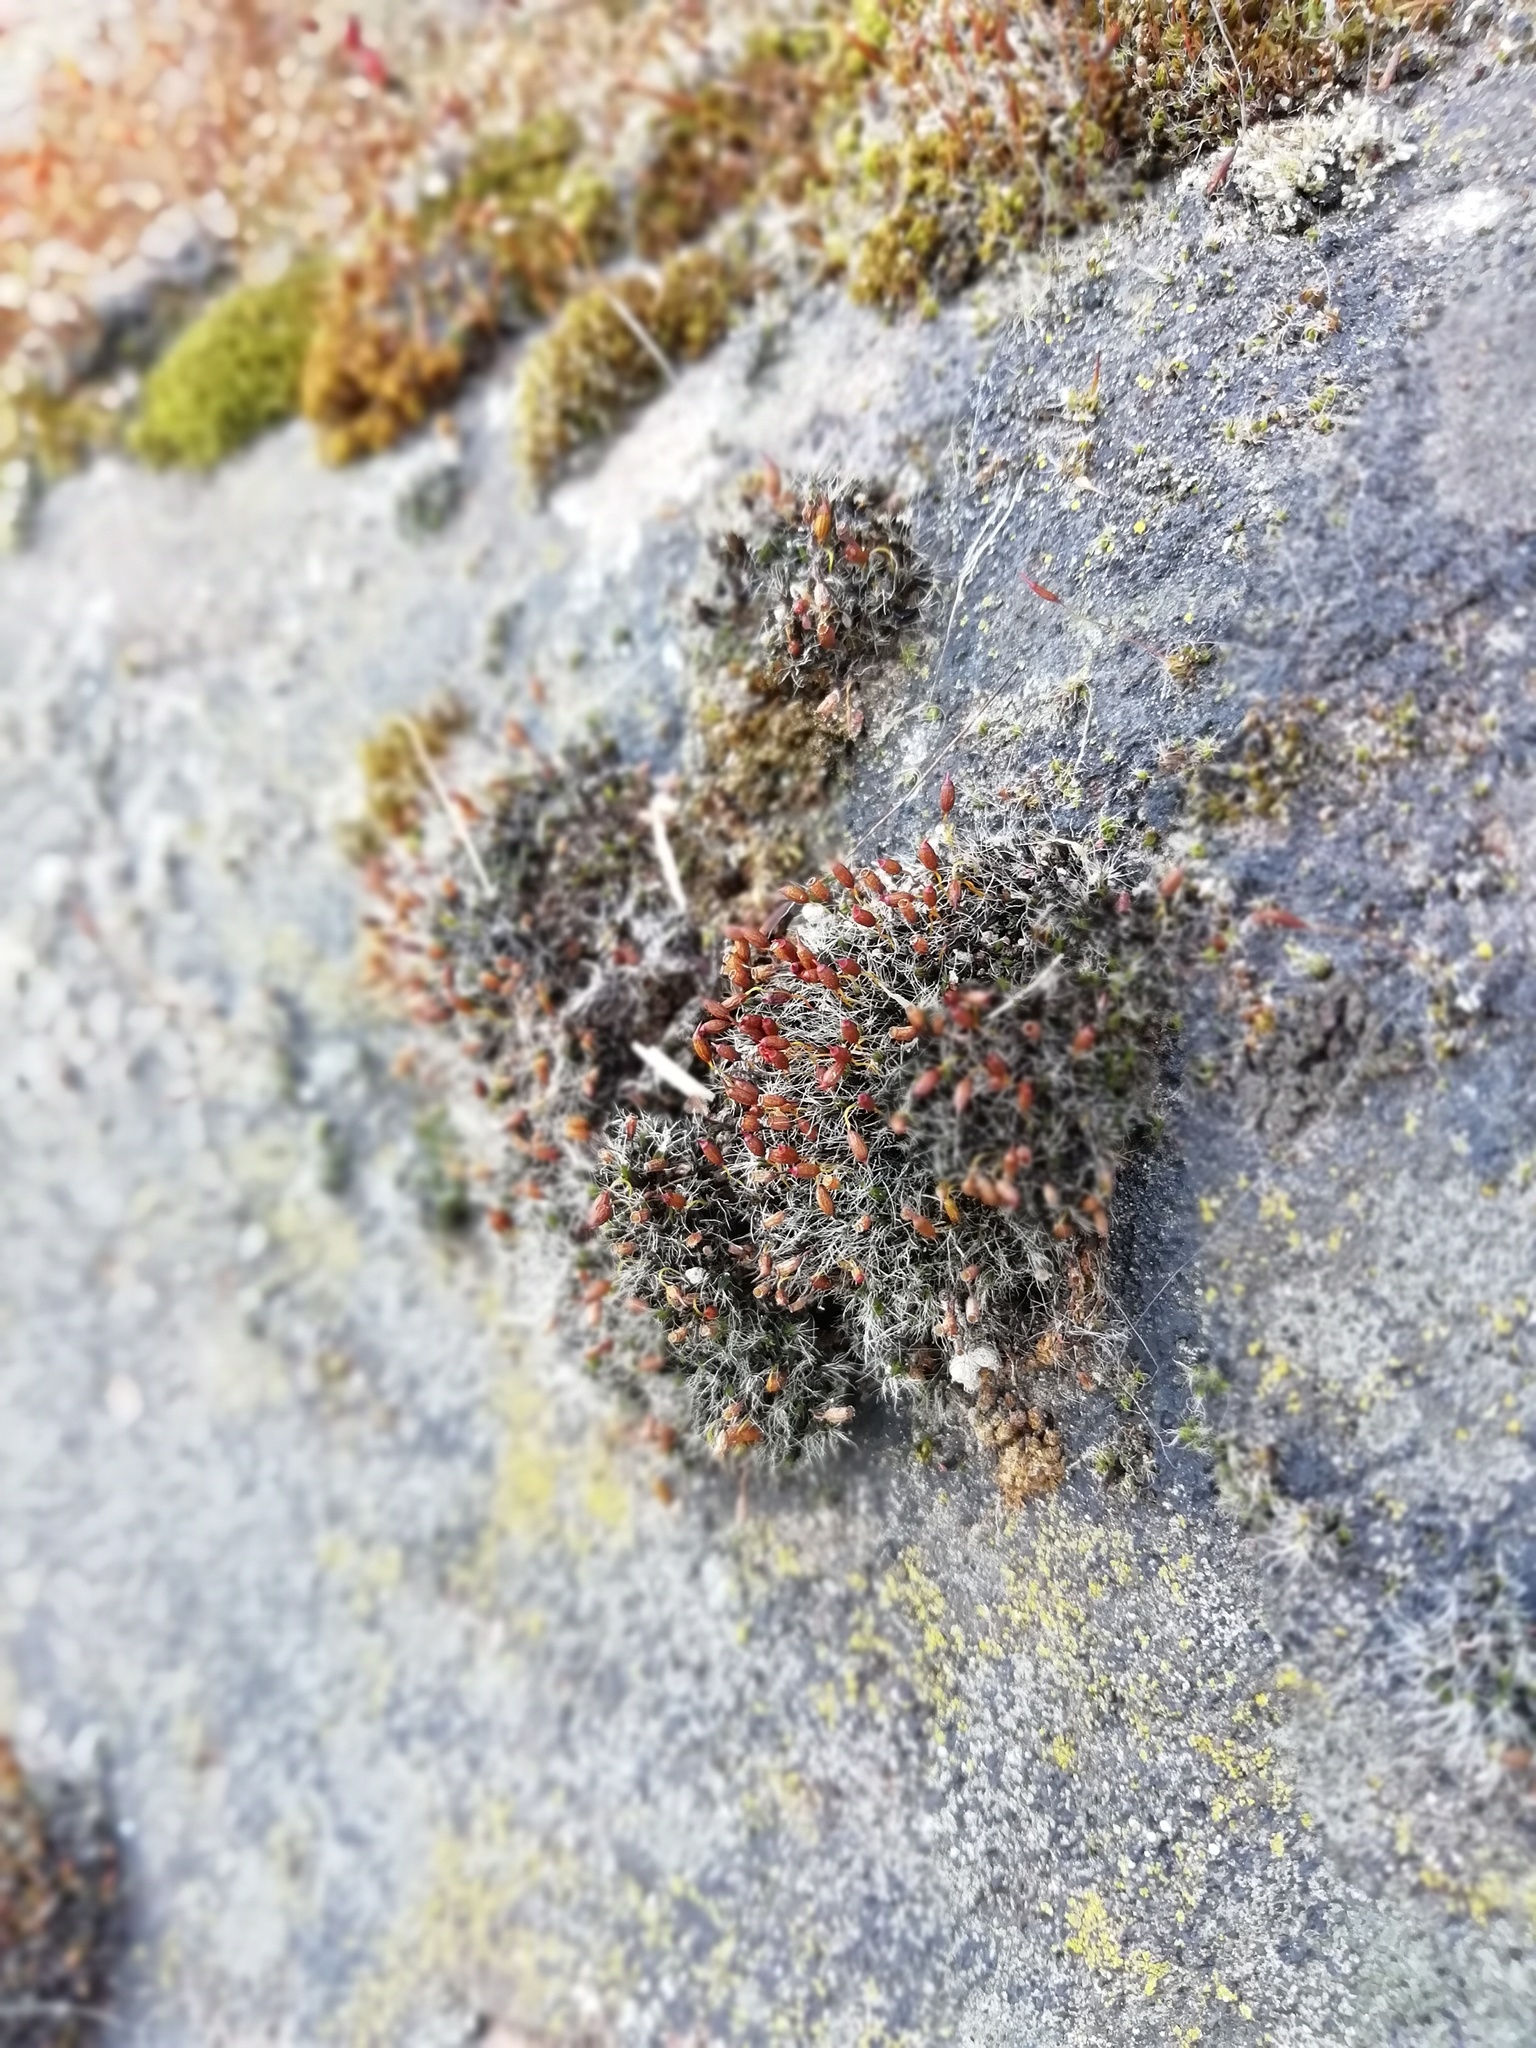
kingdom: Plantae
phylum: Bryophyta
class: Bryopsida
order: Grimmiales
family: Grimmiaceae
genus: Grimmia
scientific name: Grimmia pulvinata
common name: Grey-cushioned grimmia
